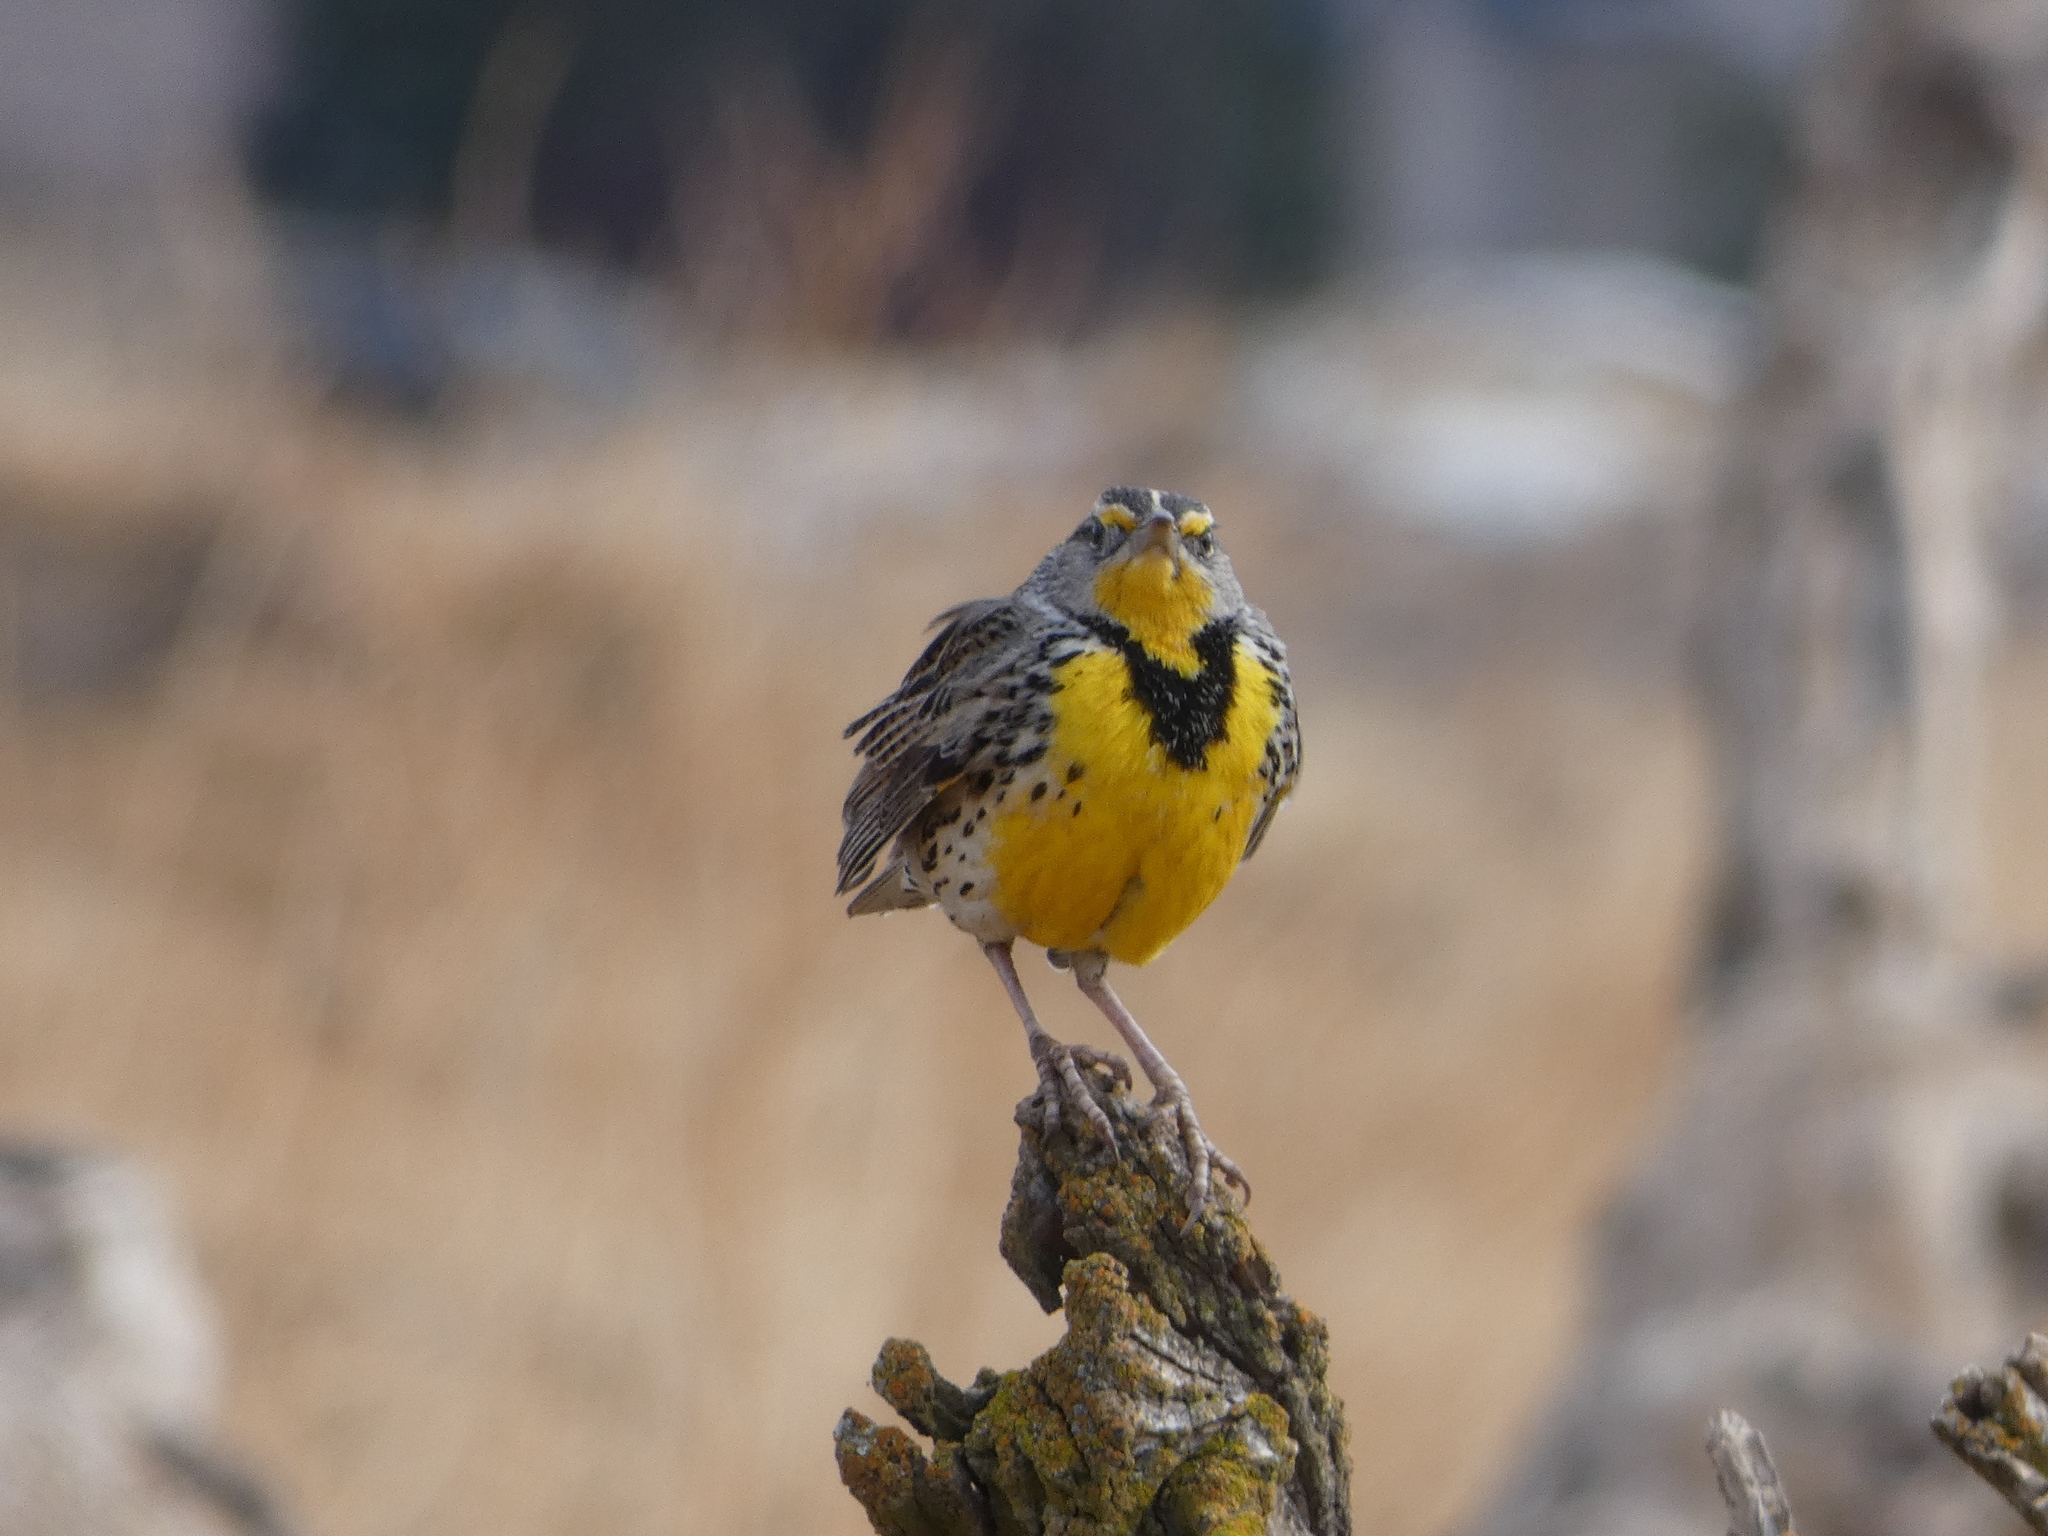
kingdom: Animalia
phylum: Chordata
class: Aves
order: Passeriformes
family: Icteridae
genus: Sturnella
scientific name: Sturnella neglecta
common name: Western meadowlark
